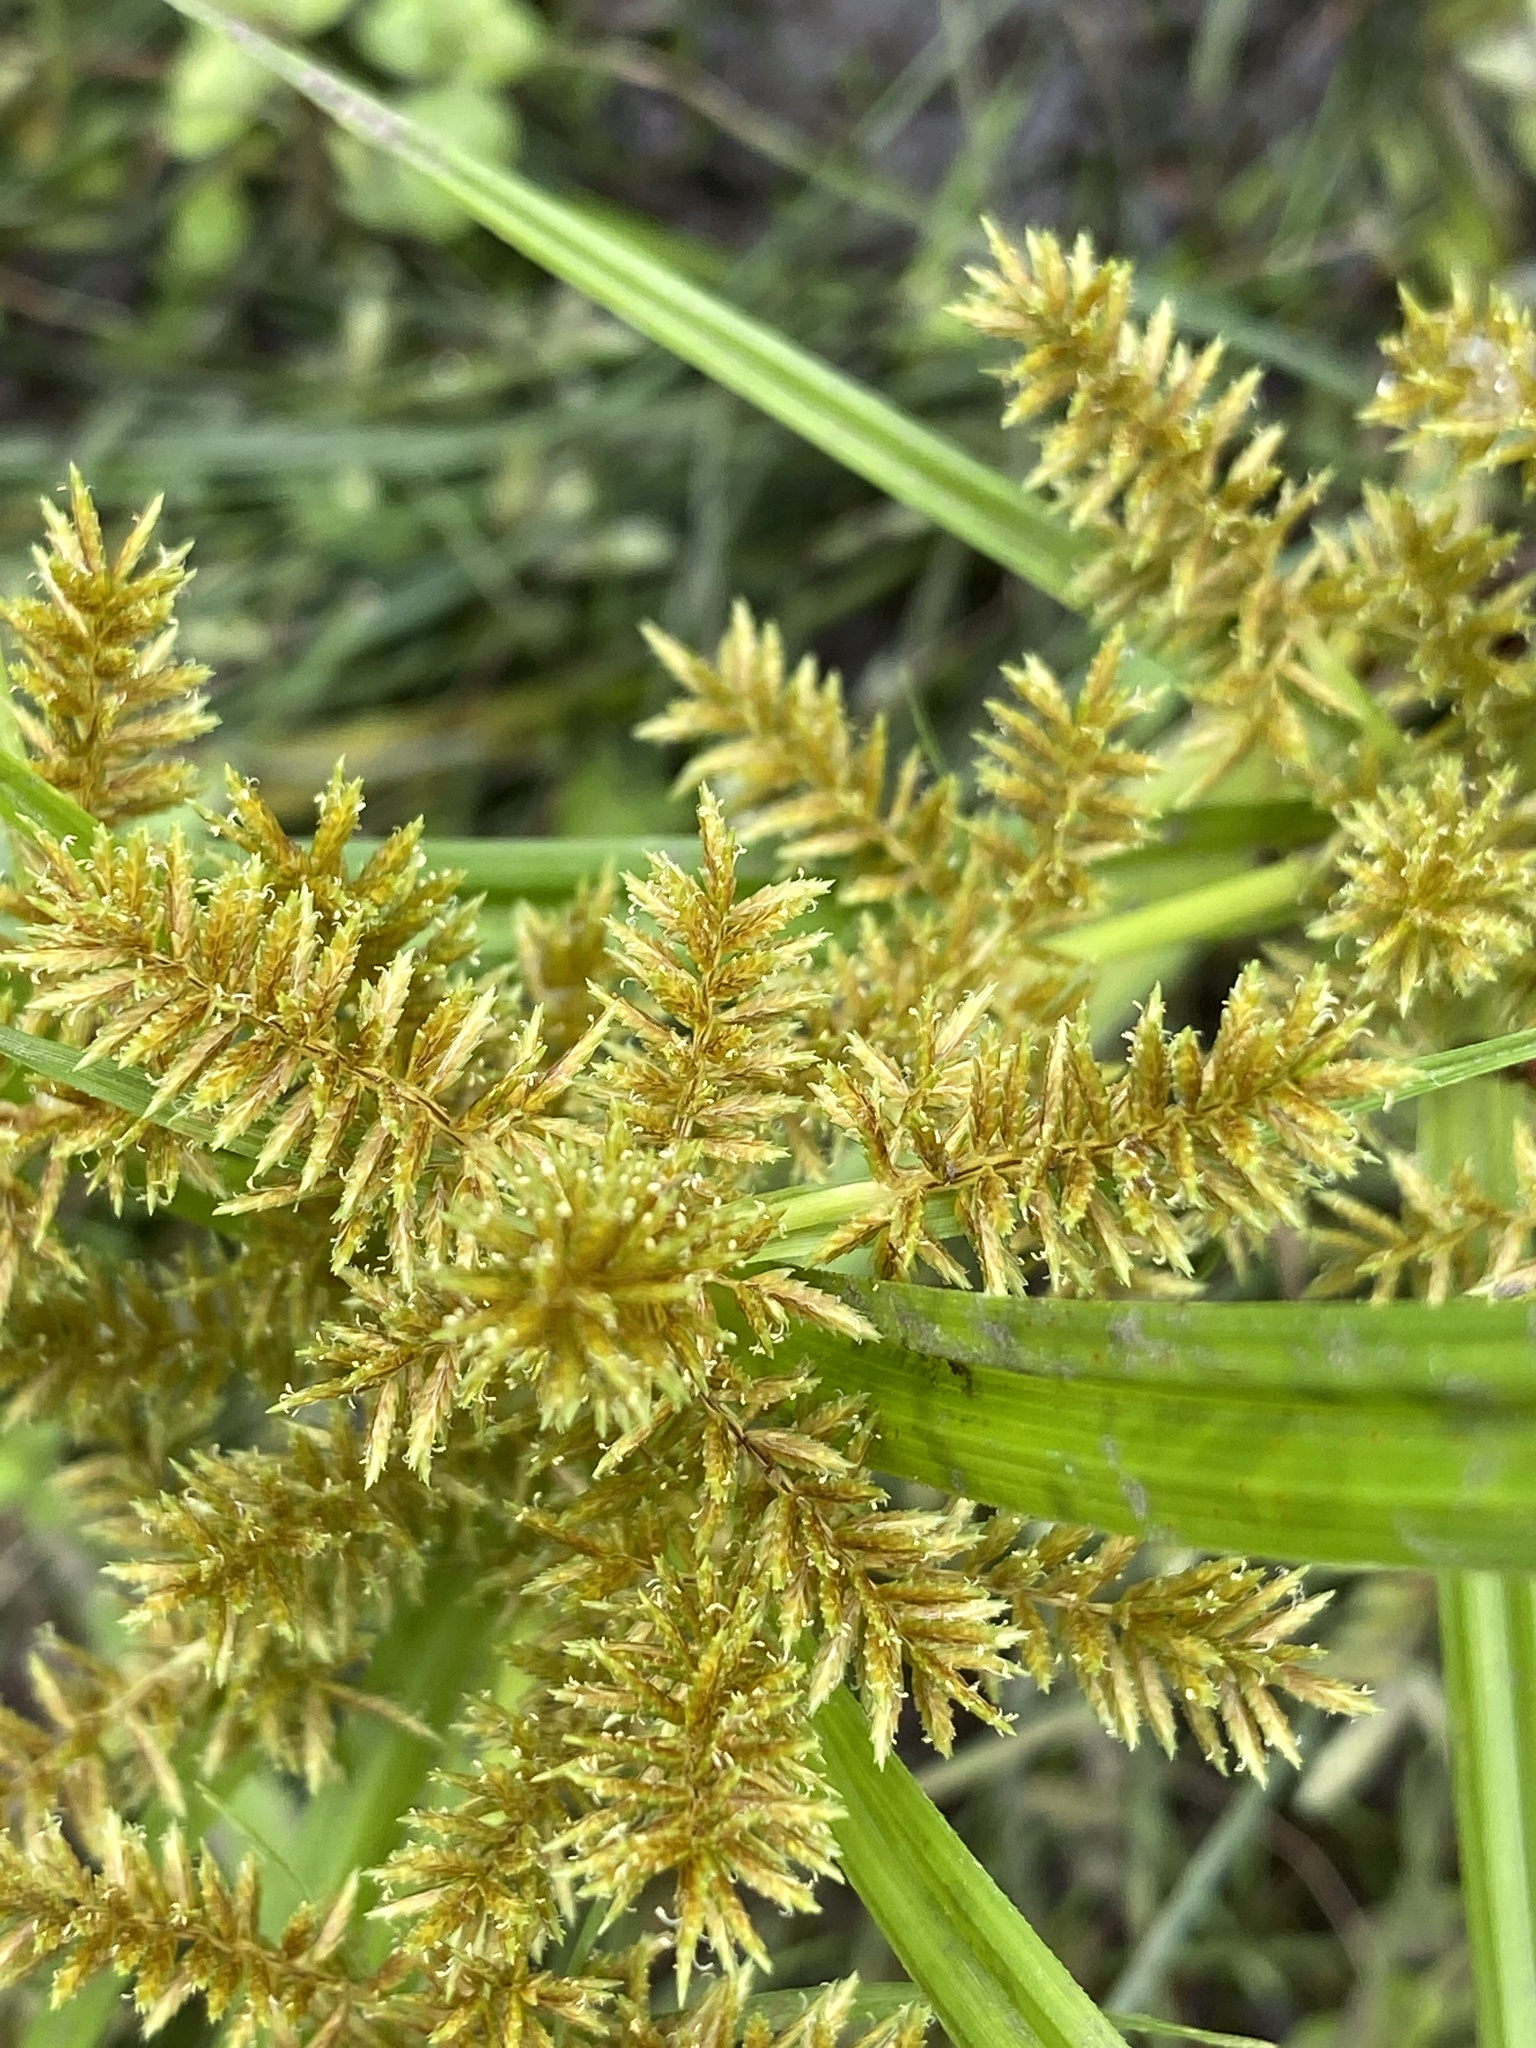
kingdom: Plantae
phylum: Tracheophyta
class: Liliopsida
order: Poales
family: Cyperaceae
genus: Cyperus
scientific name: Cyperus erythrorhizos
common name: Red-root flat sedge
